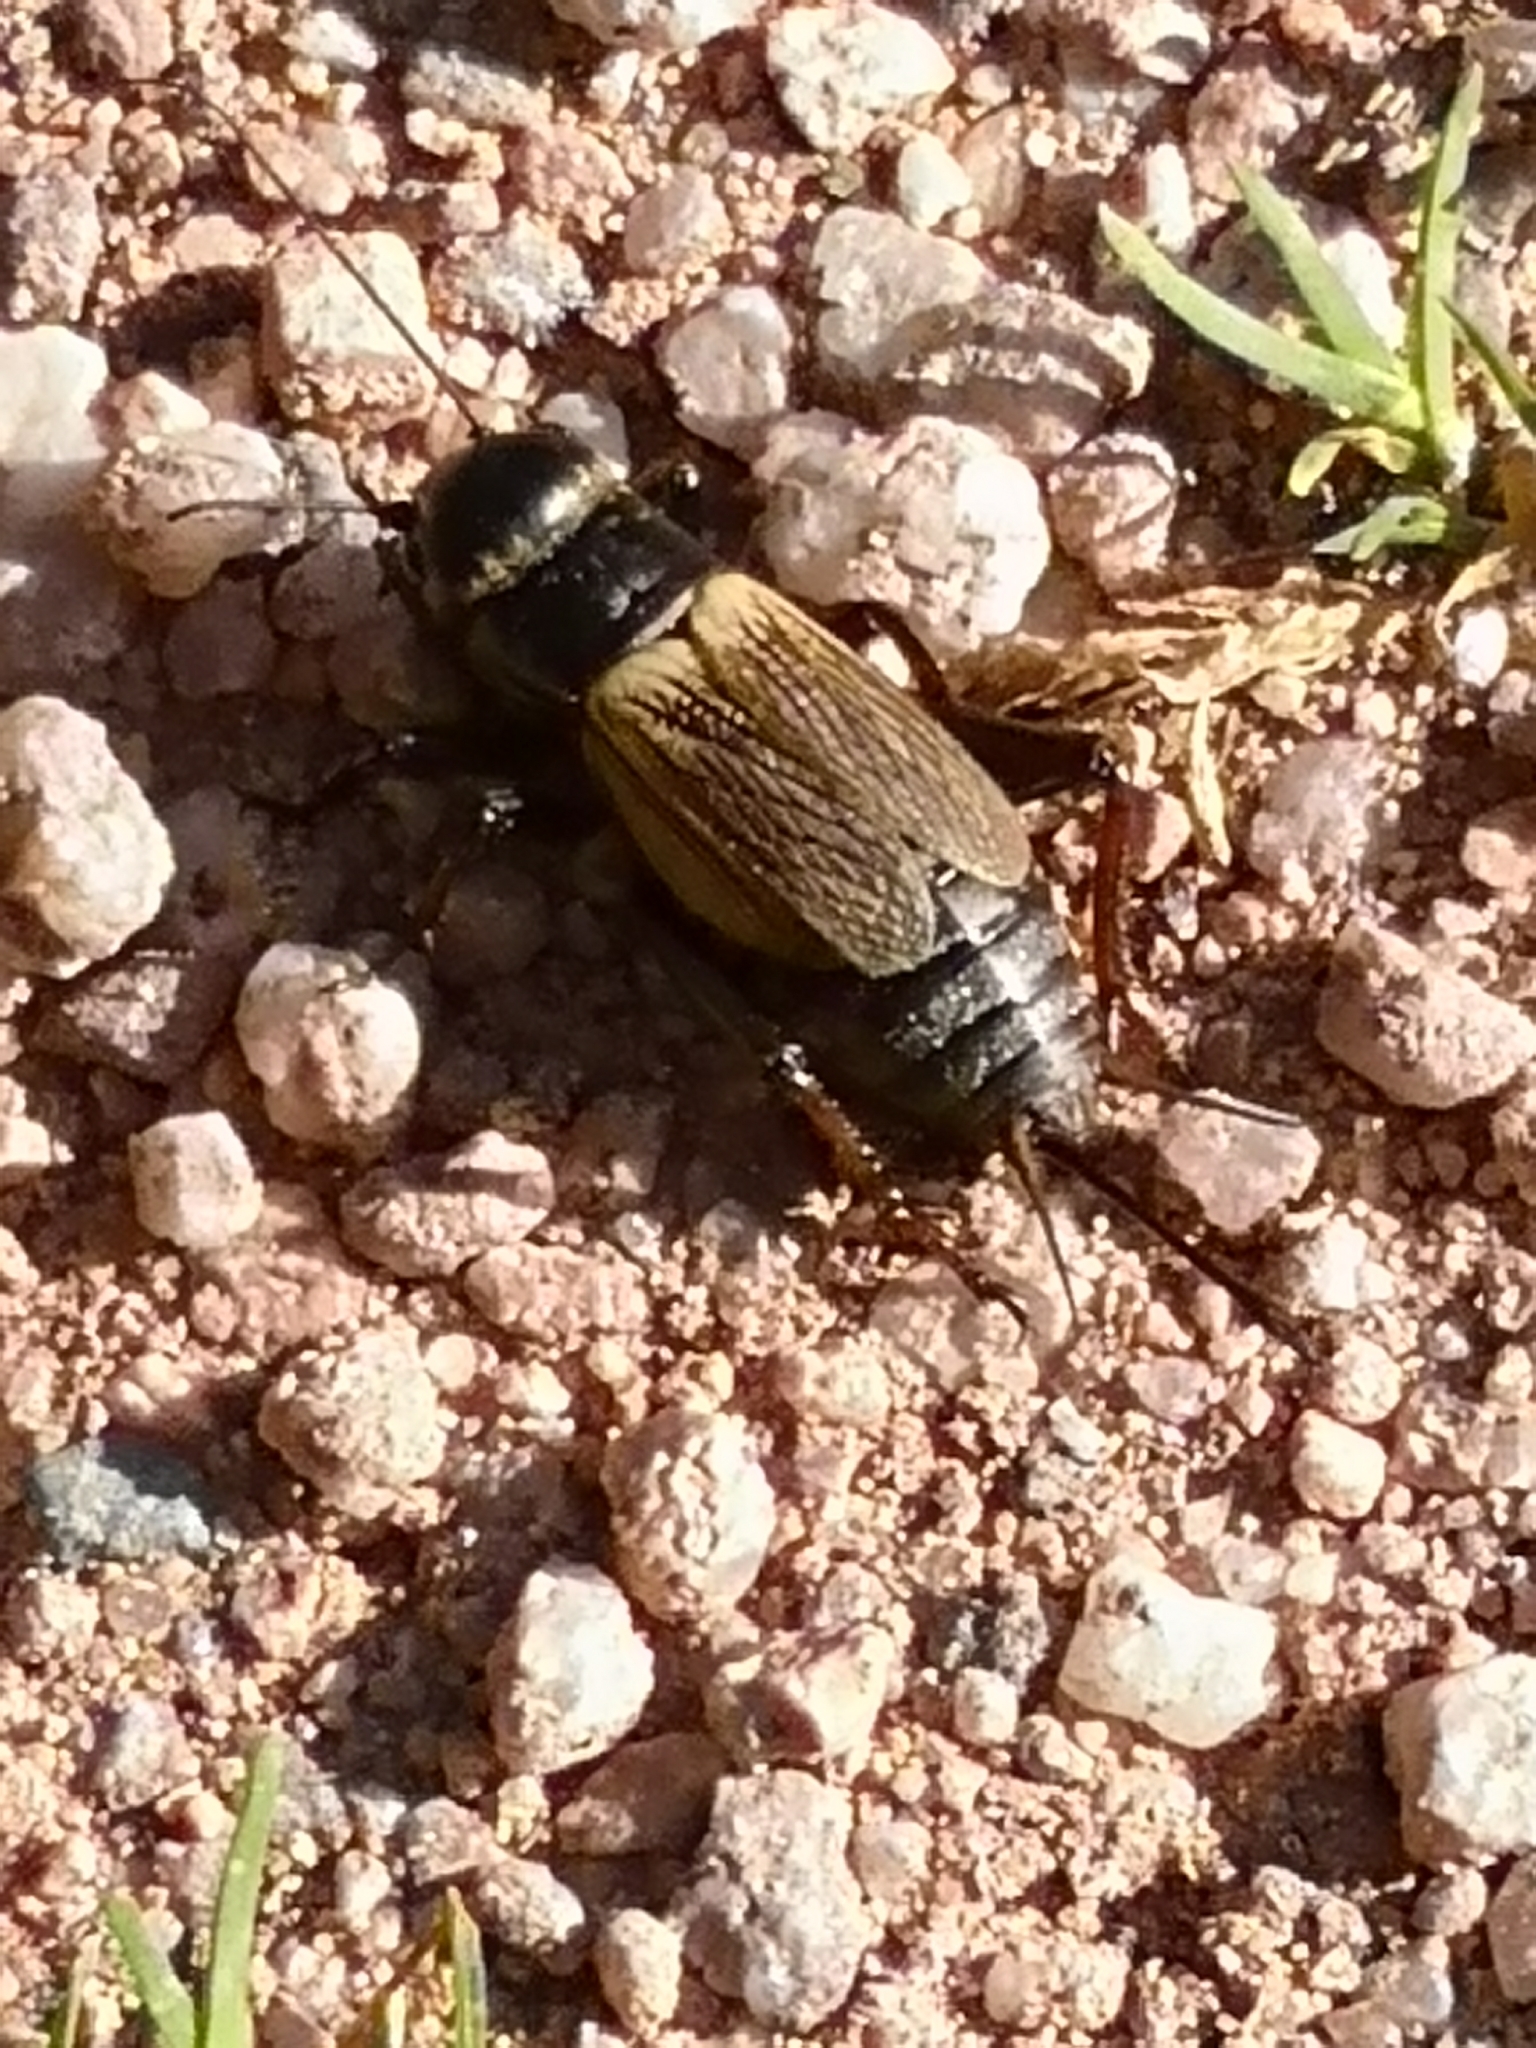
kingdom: Animalia
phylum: Arthropoda
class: Insecta
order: Orthoptera
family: Gryllidae
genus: Gryllus
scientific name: Gryllus campestris
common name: Field cricket
